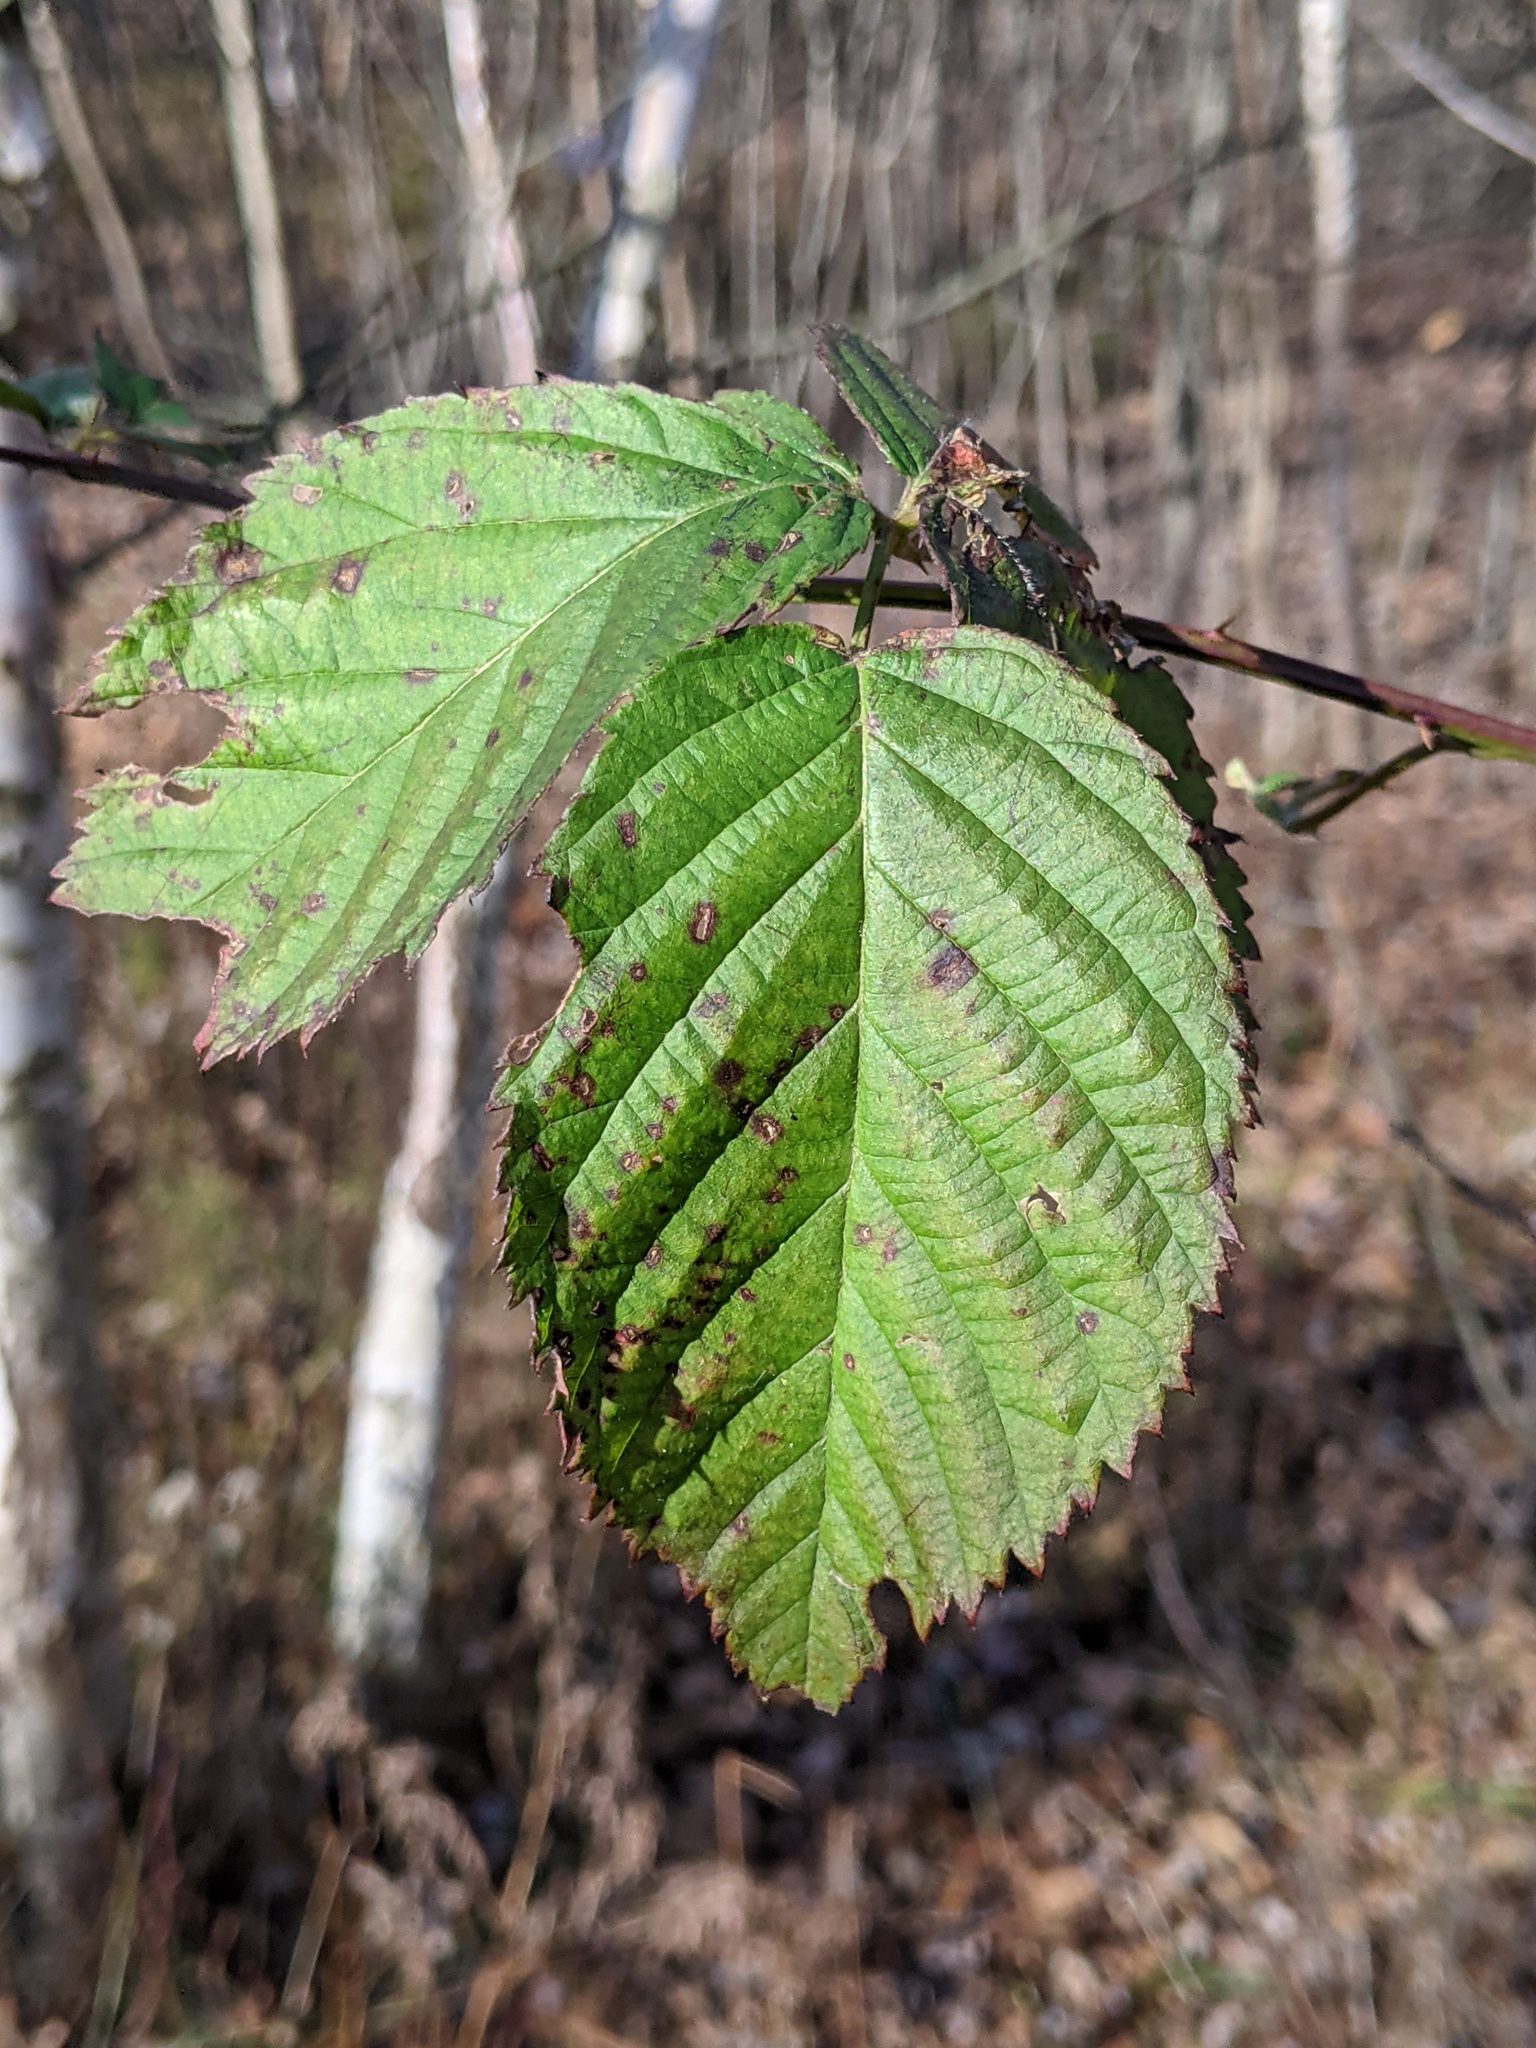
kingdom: Plantae
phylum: Tracheophyta
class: Magnoliopsida
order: Rosales
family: Rosaceae
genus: Rubus
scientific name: Rubus allegheniensis
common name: Allegheny blackberry
